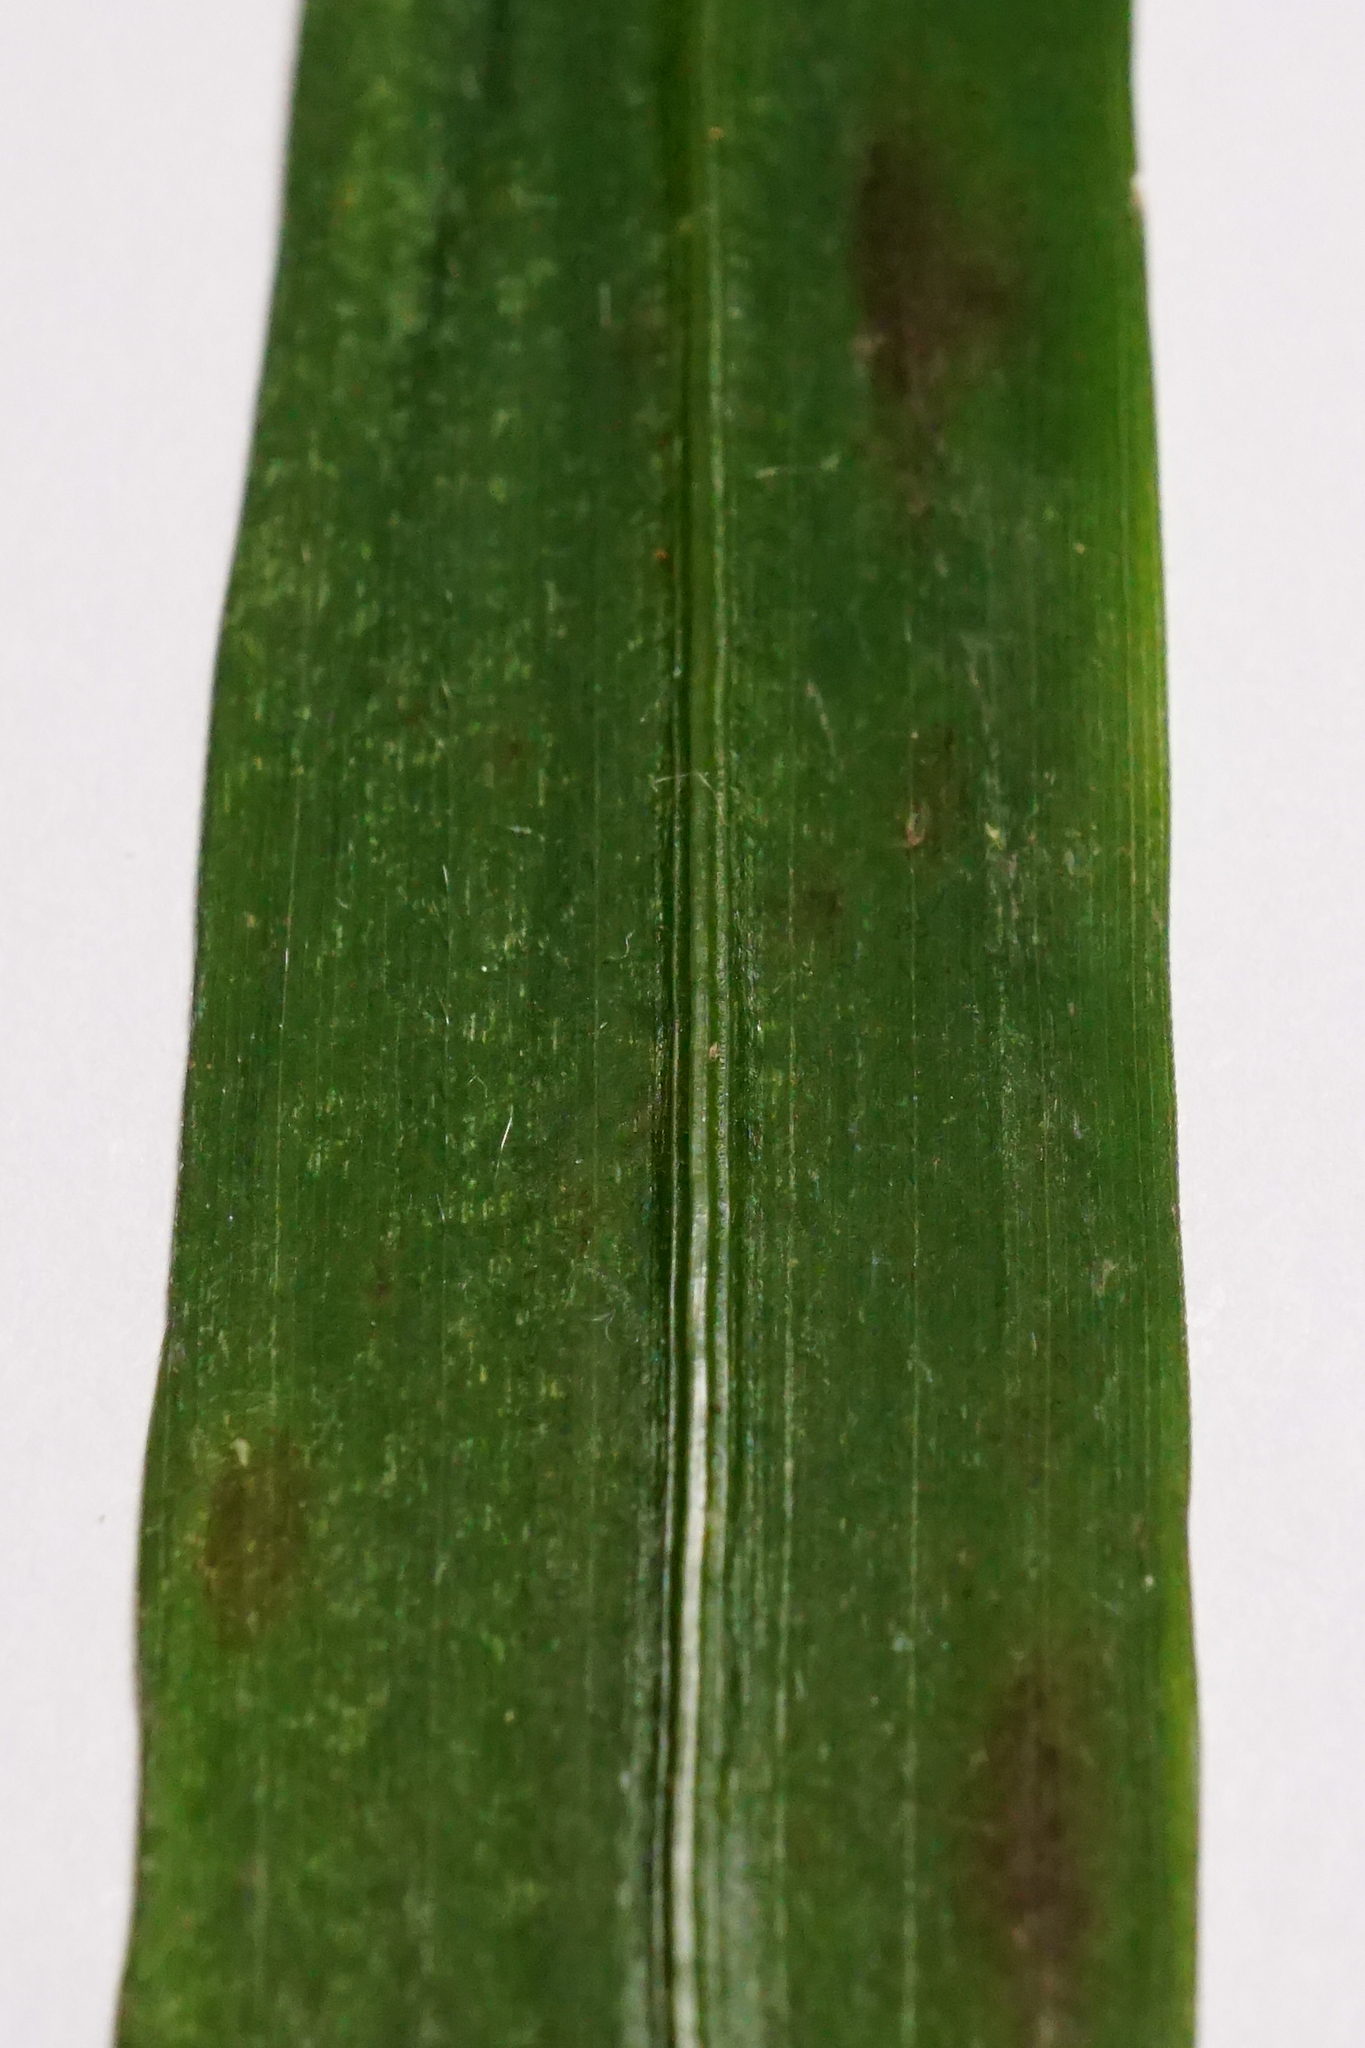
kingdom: Plantae
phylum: Tracheophyta
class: Liliopsida
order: Poales
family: Poaceae
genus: Brachypodium
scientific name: Brachypodium sylvaticum
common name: False-brome
